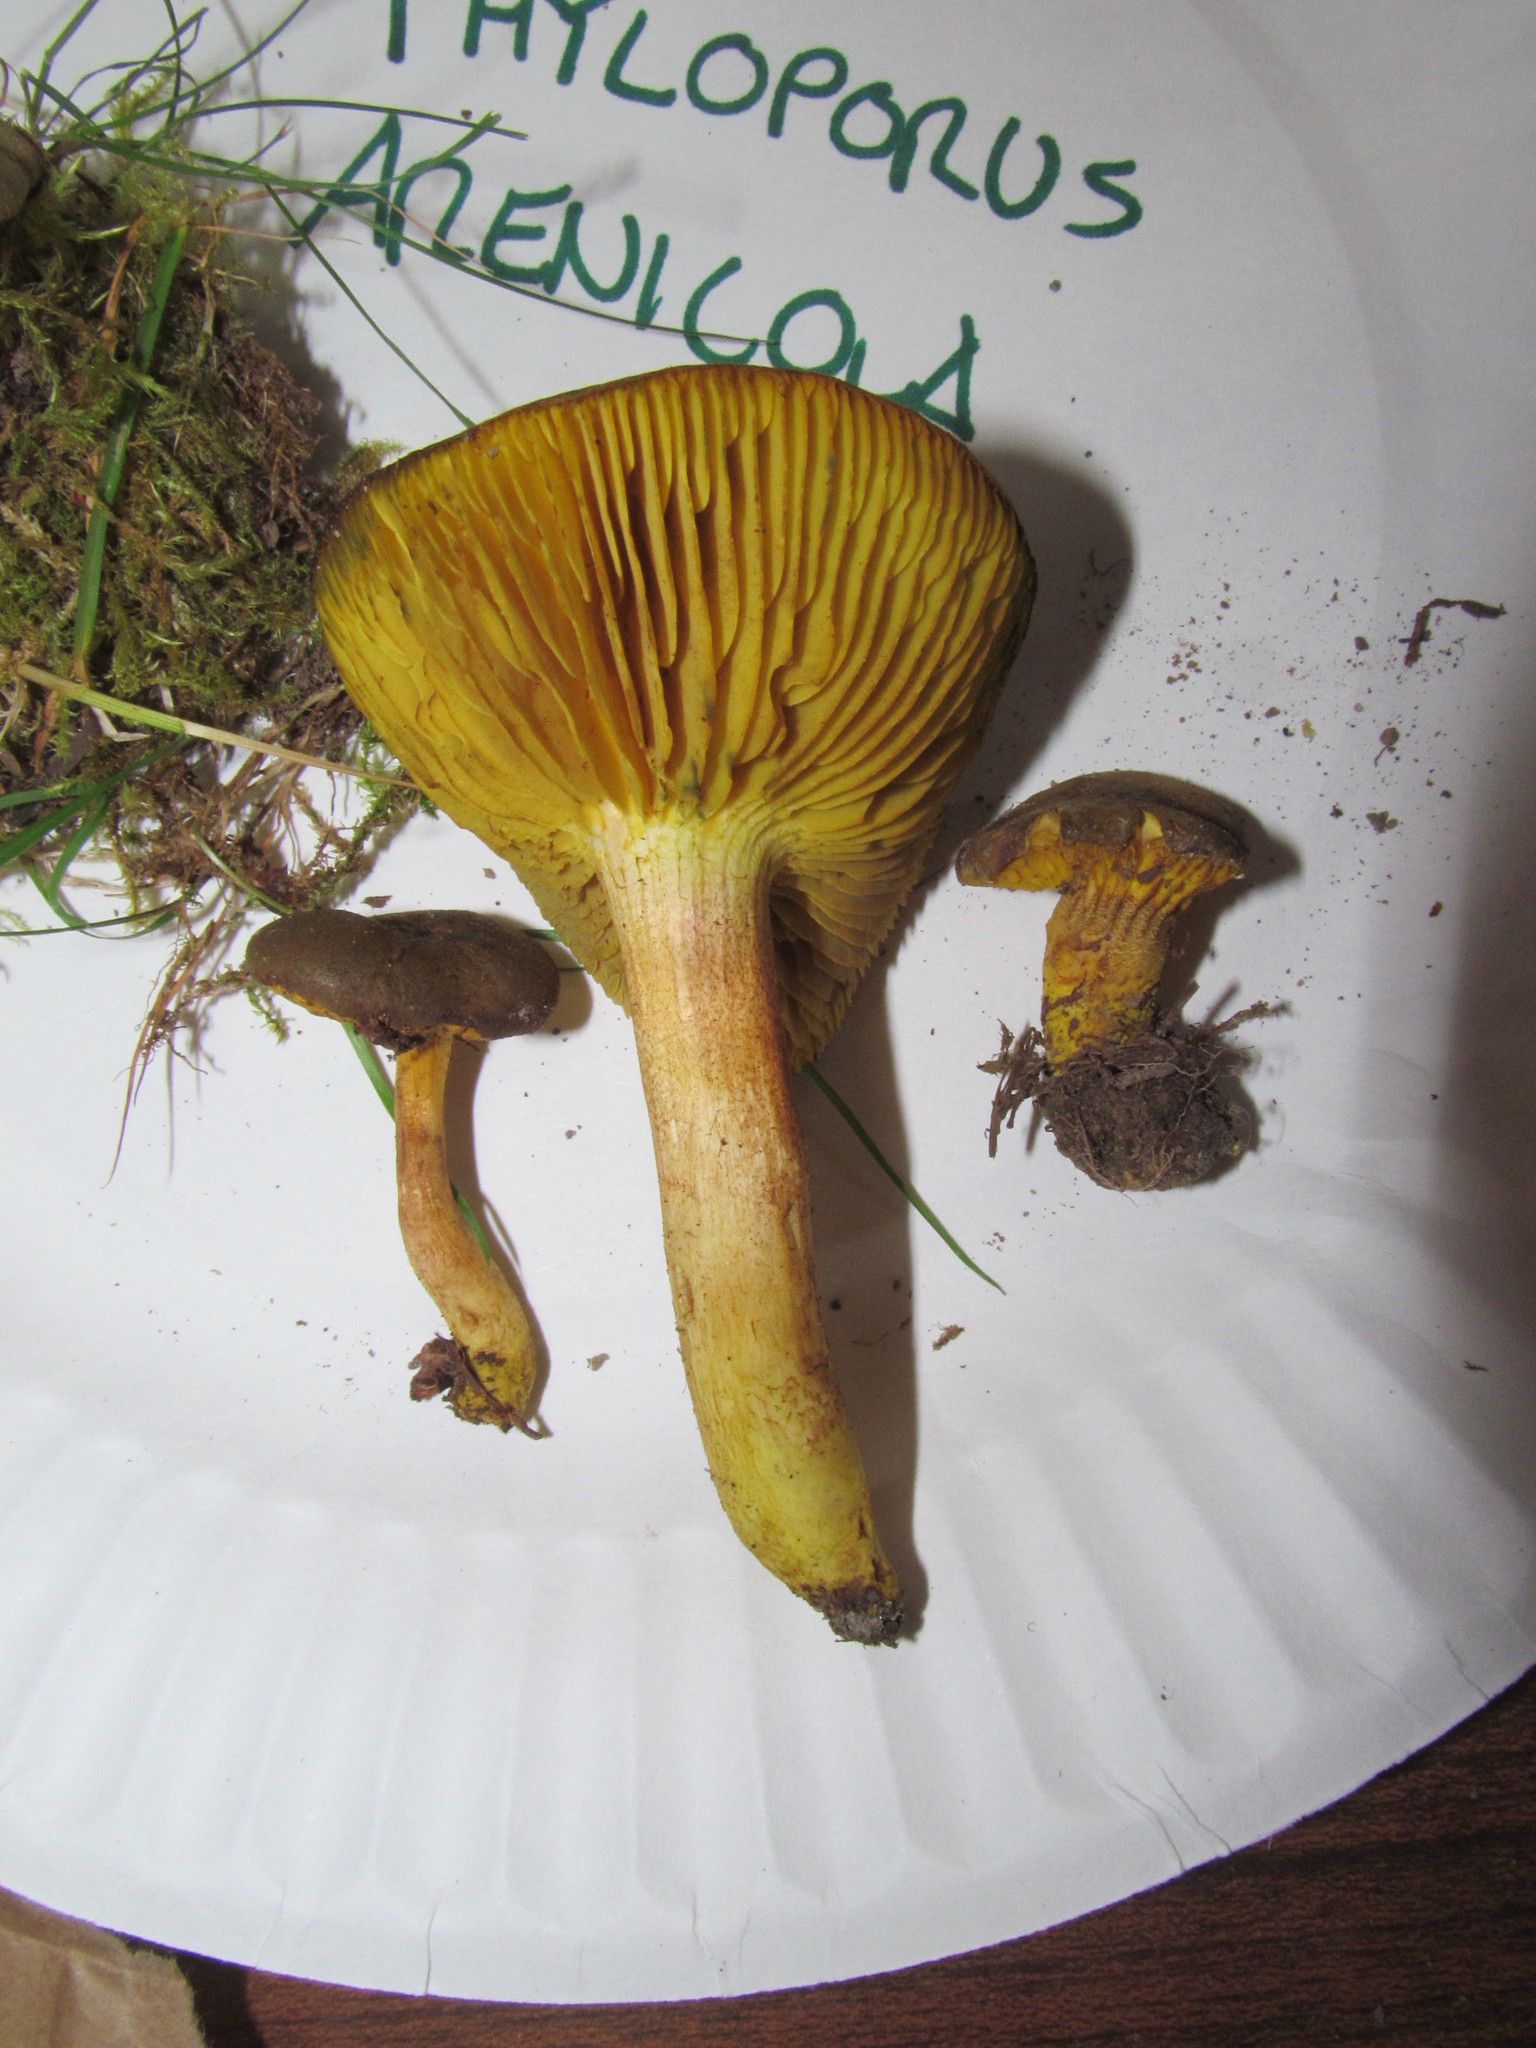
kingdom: Fungi
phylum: Basidiomycota
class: Agaricomycetes
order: Boletales
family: Boletaceae
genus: Phylloporus
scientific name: Phylloporus arenicola
